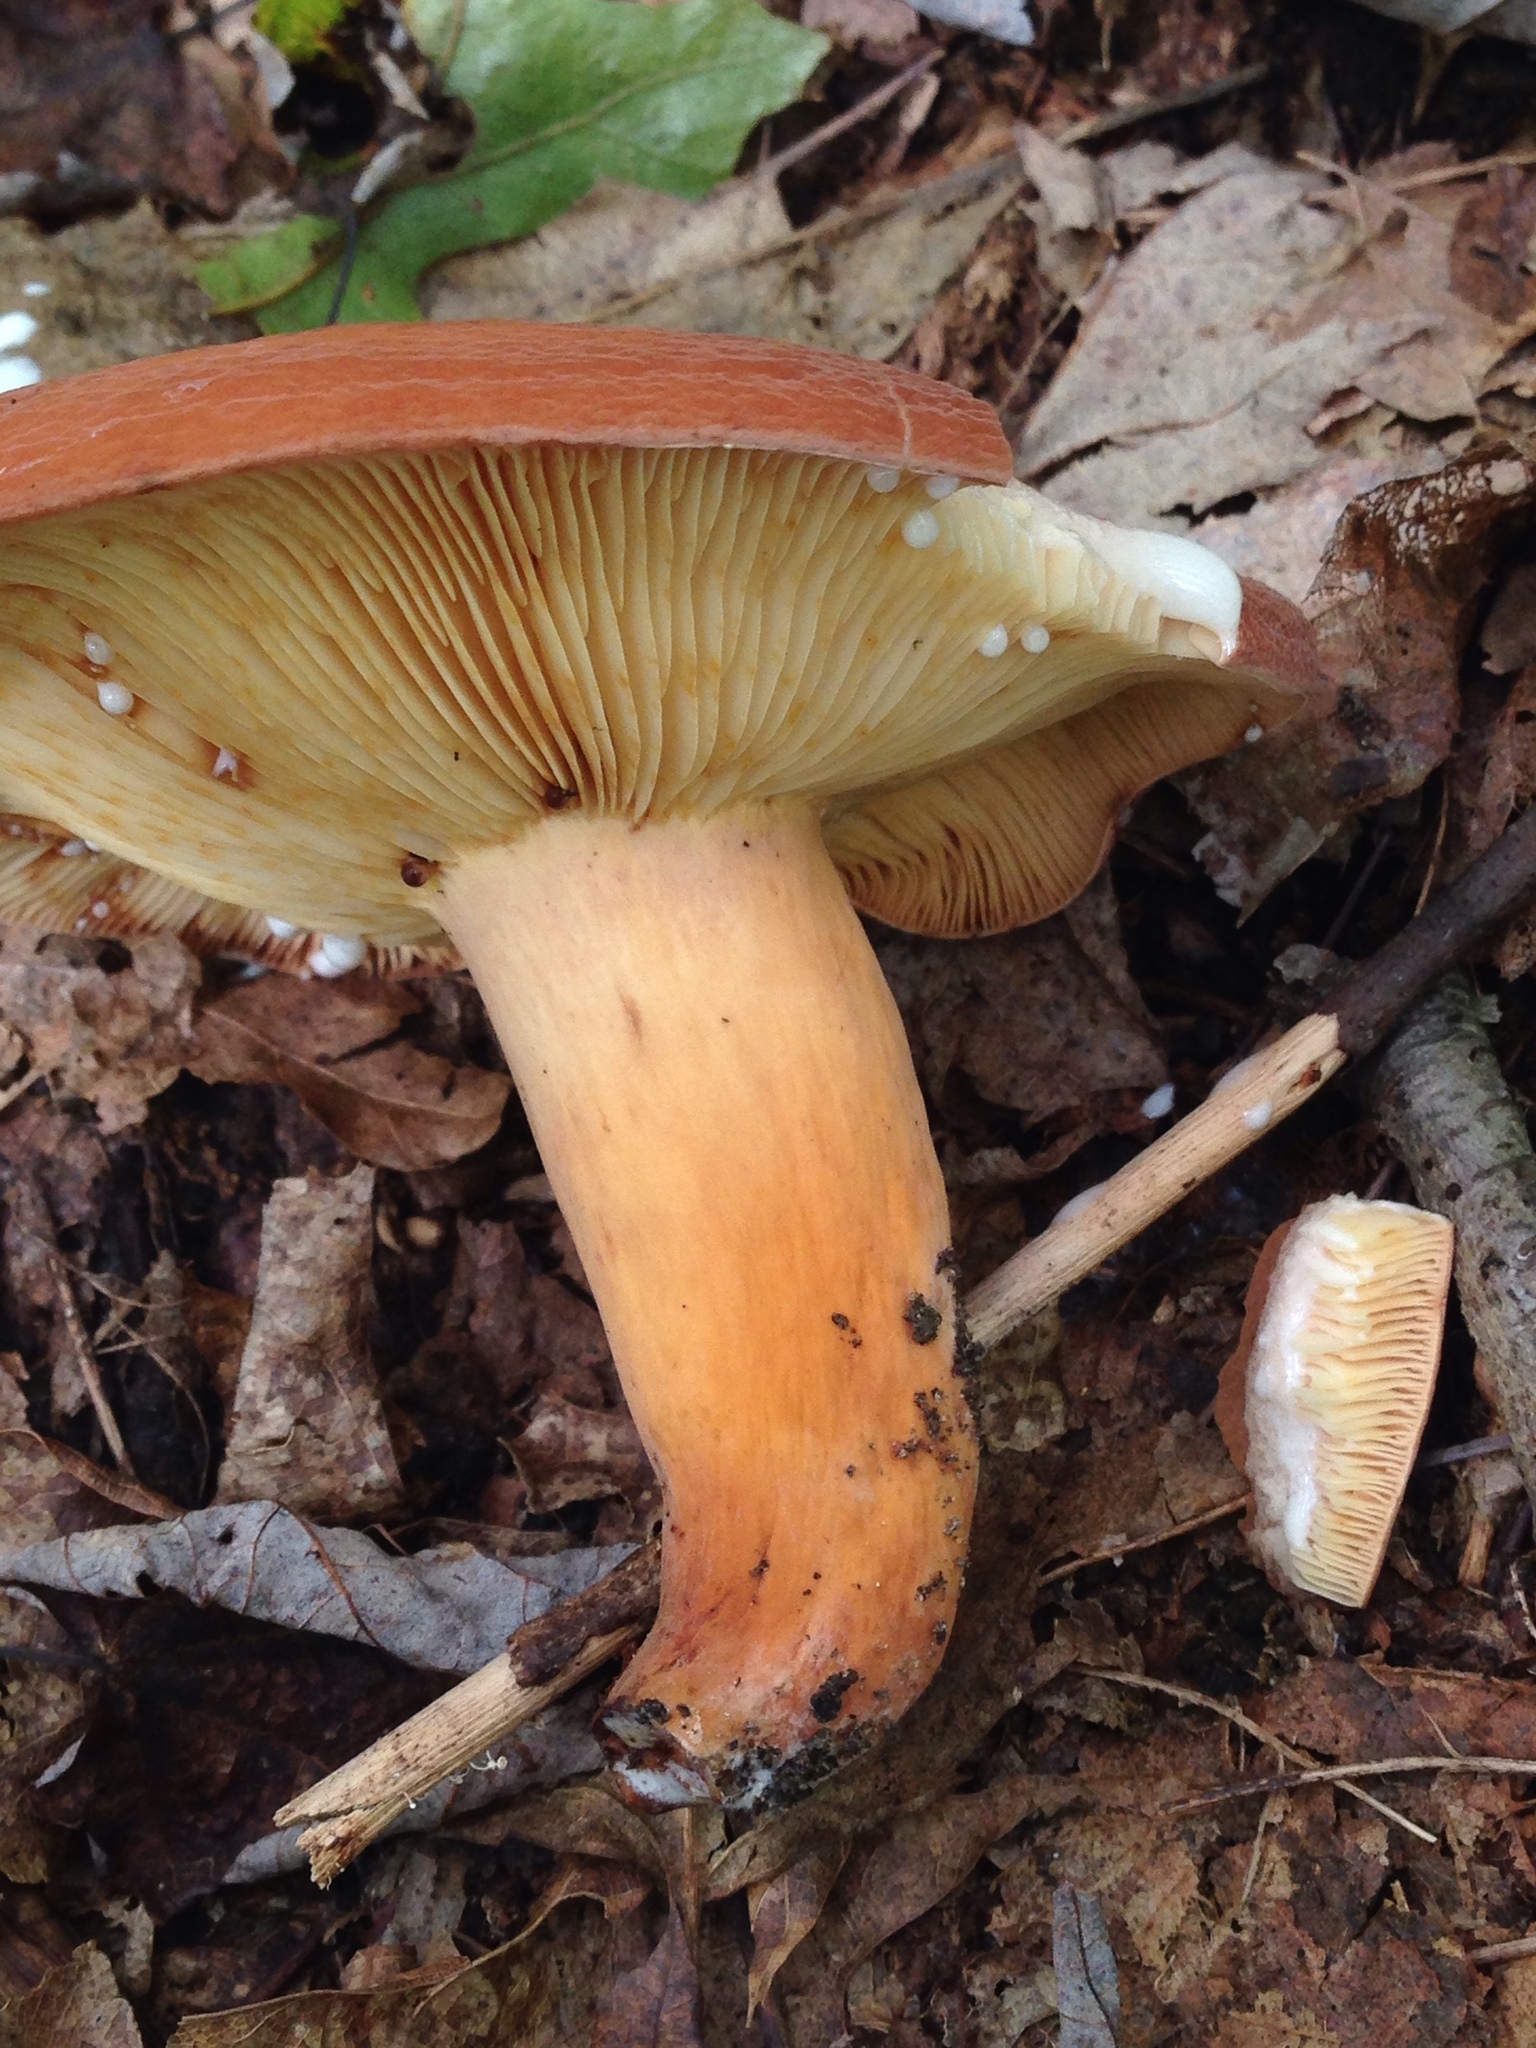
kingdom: Fungi
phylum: Basidiomycota
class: Agaricomycetes
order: Russulales
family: Russulaceae
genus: Lactifluus
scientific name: Lactifluus volemus
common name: Fishy milkcap
